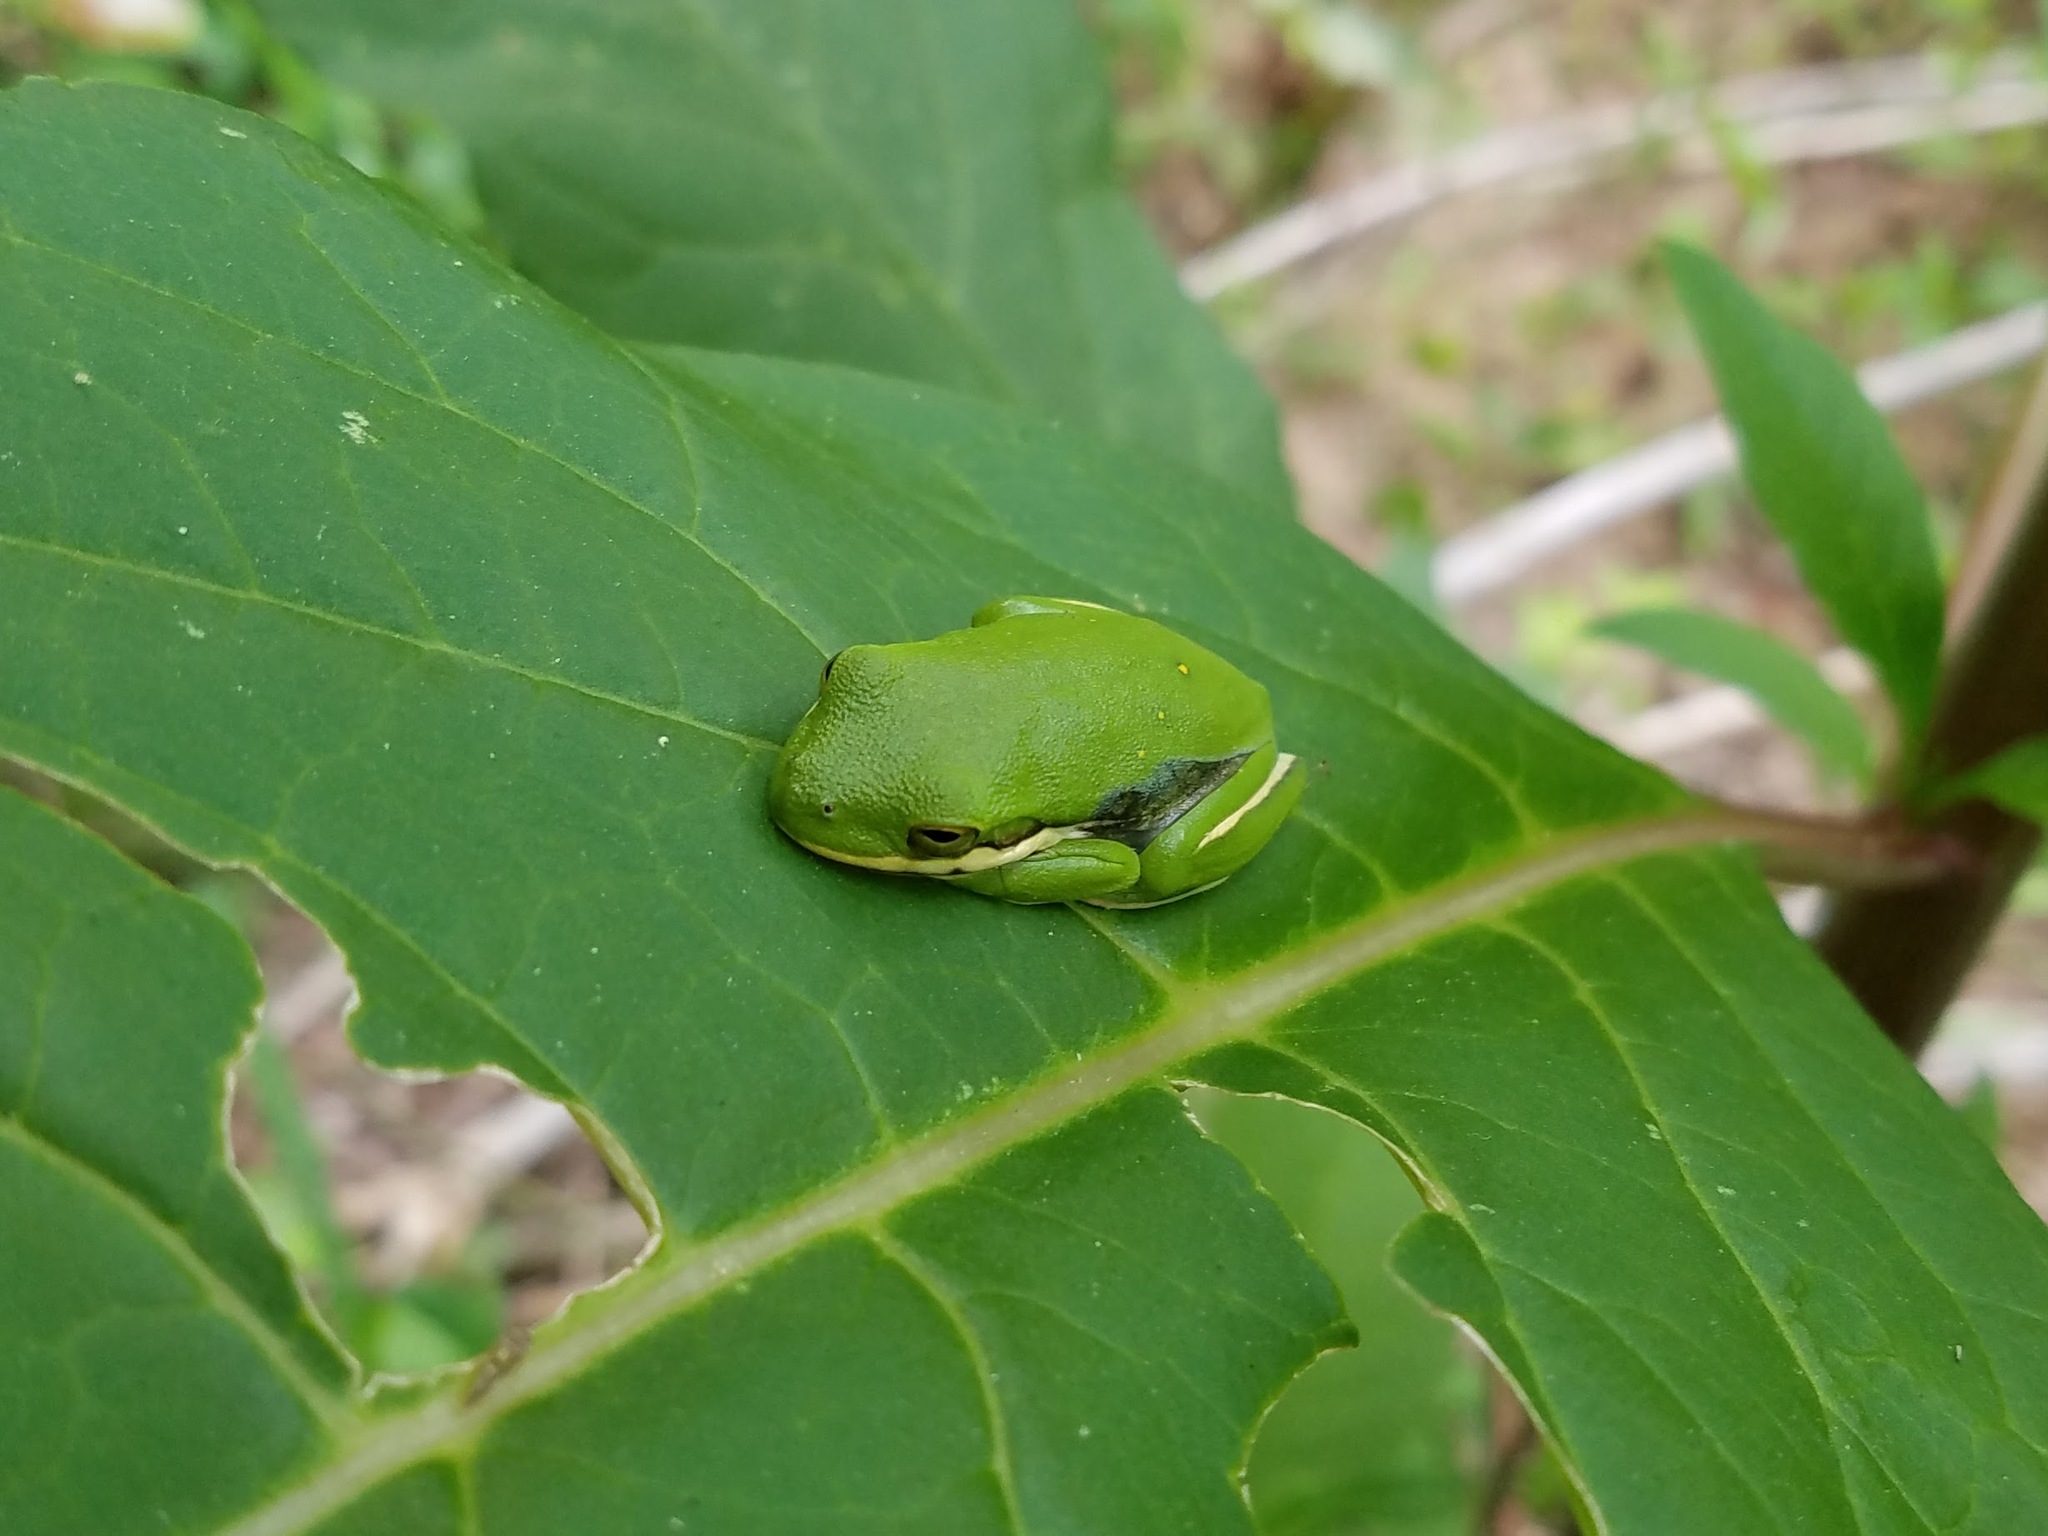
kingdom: Animalia
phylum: Chordata
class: Amphibia
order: Anura
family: Hylidae
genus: Dryophytes
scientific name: Dryophytes cinereus
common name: Green treefrog
